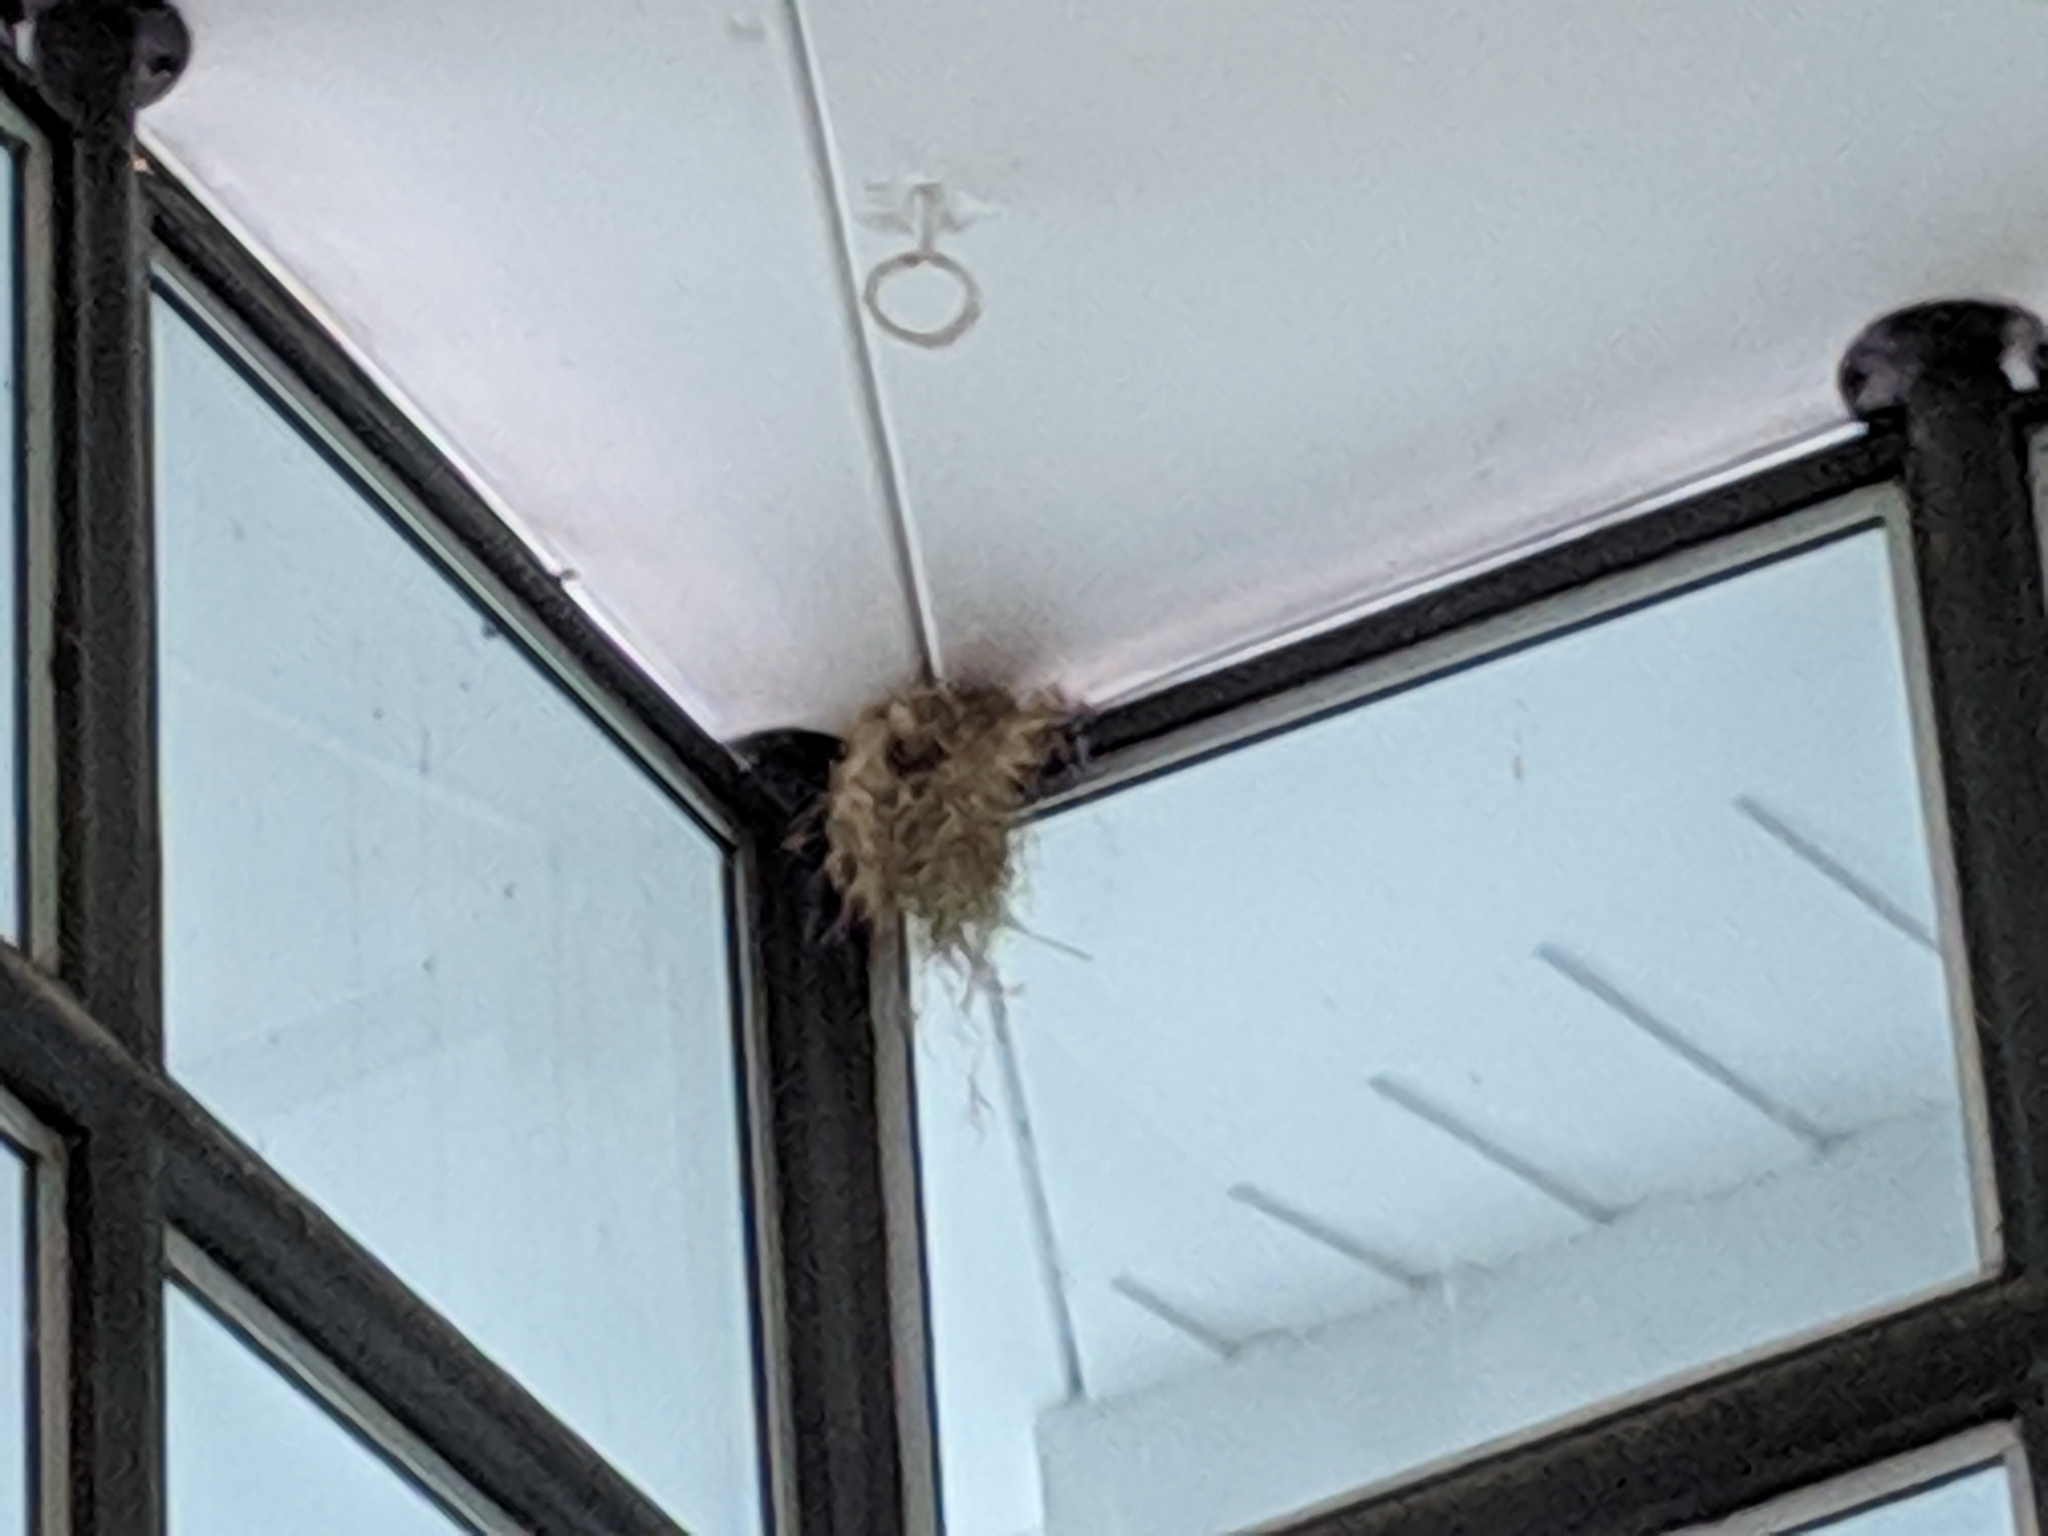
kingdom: Animalia
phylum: Chordata
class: Aves
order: Passeriformes
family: Passeridae
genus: Passer
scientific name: Passer domesticus
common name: House sparrow
